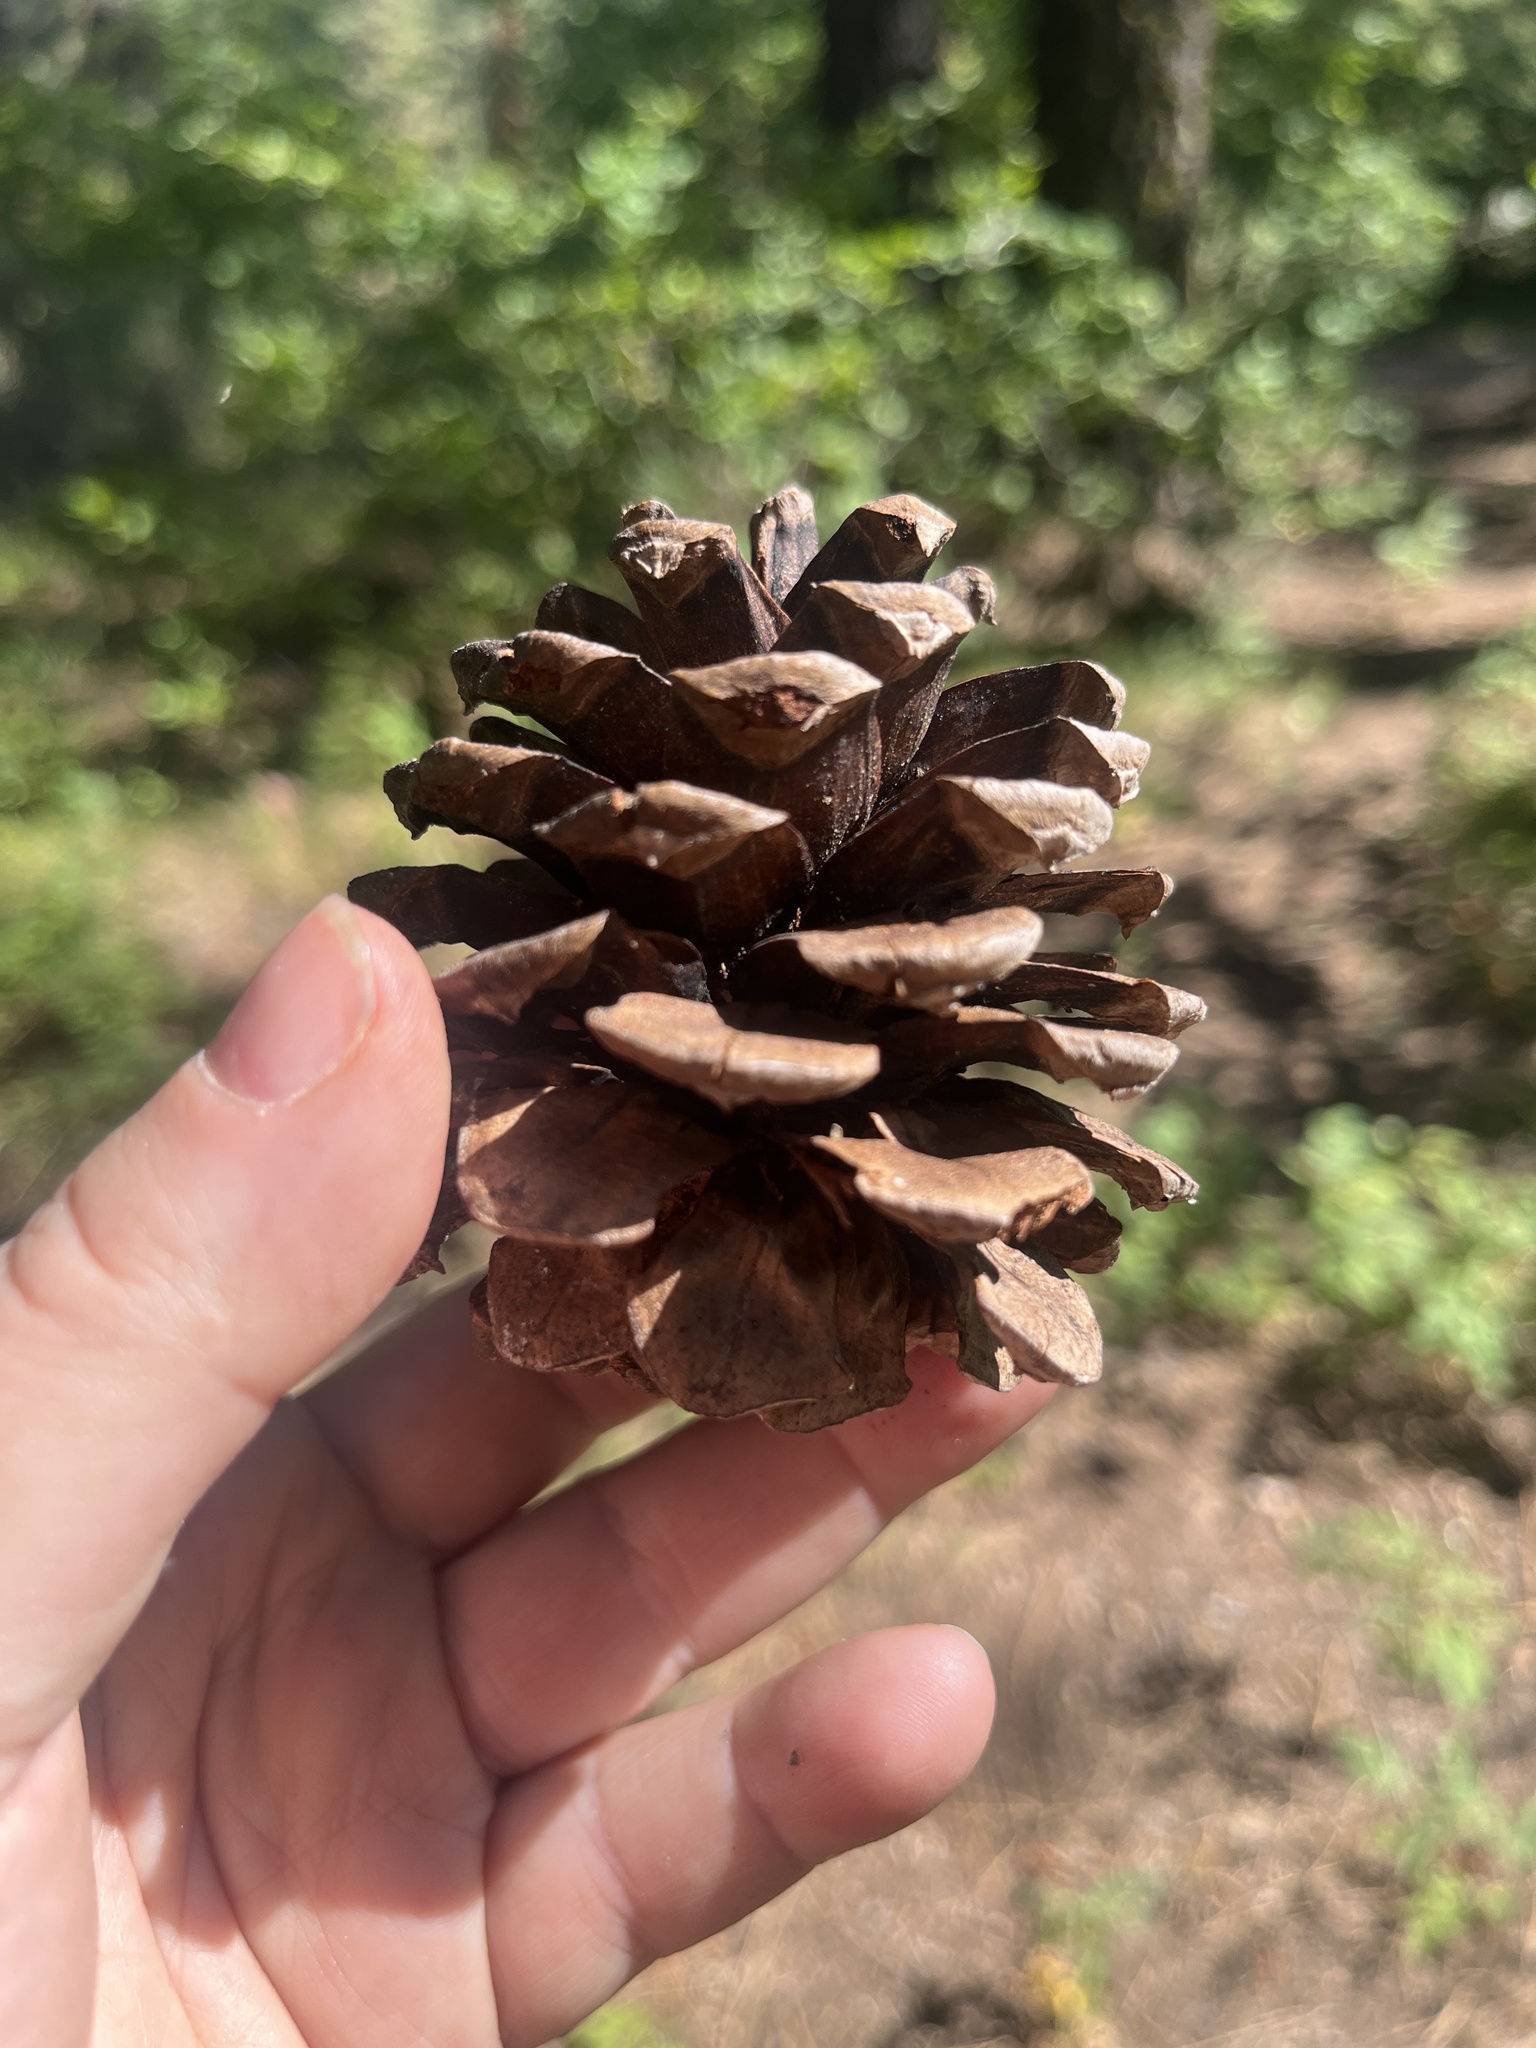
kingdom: Plantae
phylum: Tracheophyta
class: Pinopsida
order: Pinales
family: Pinaceae
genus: Pinus
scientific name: Pinus ponderosa
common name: Western yellow-pine
